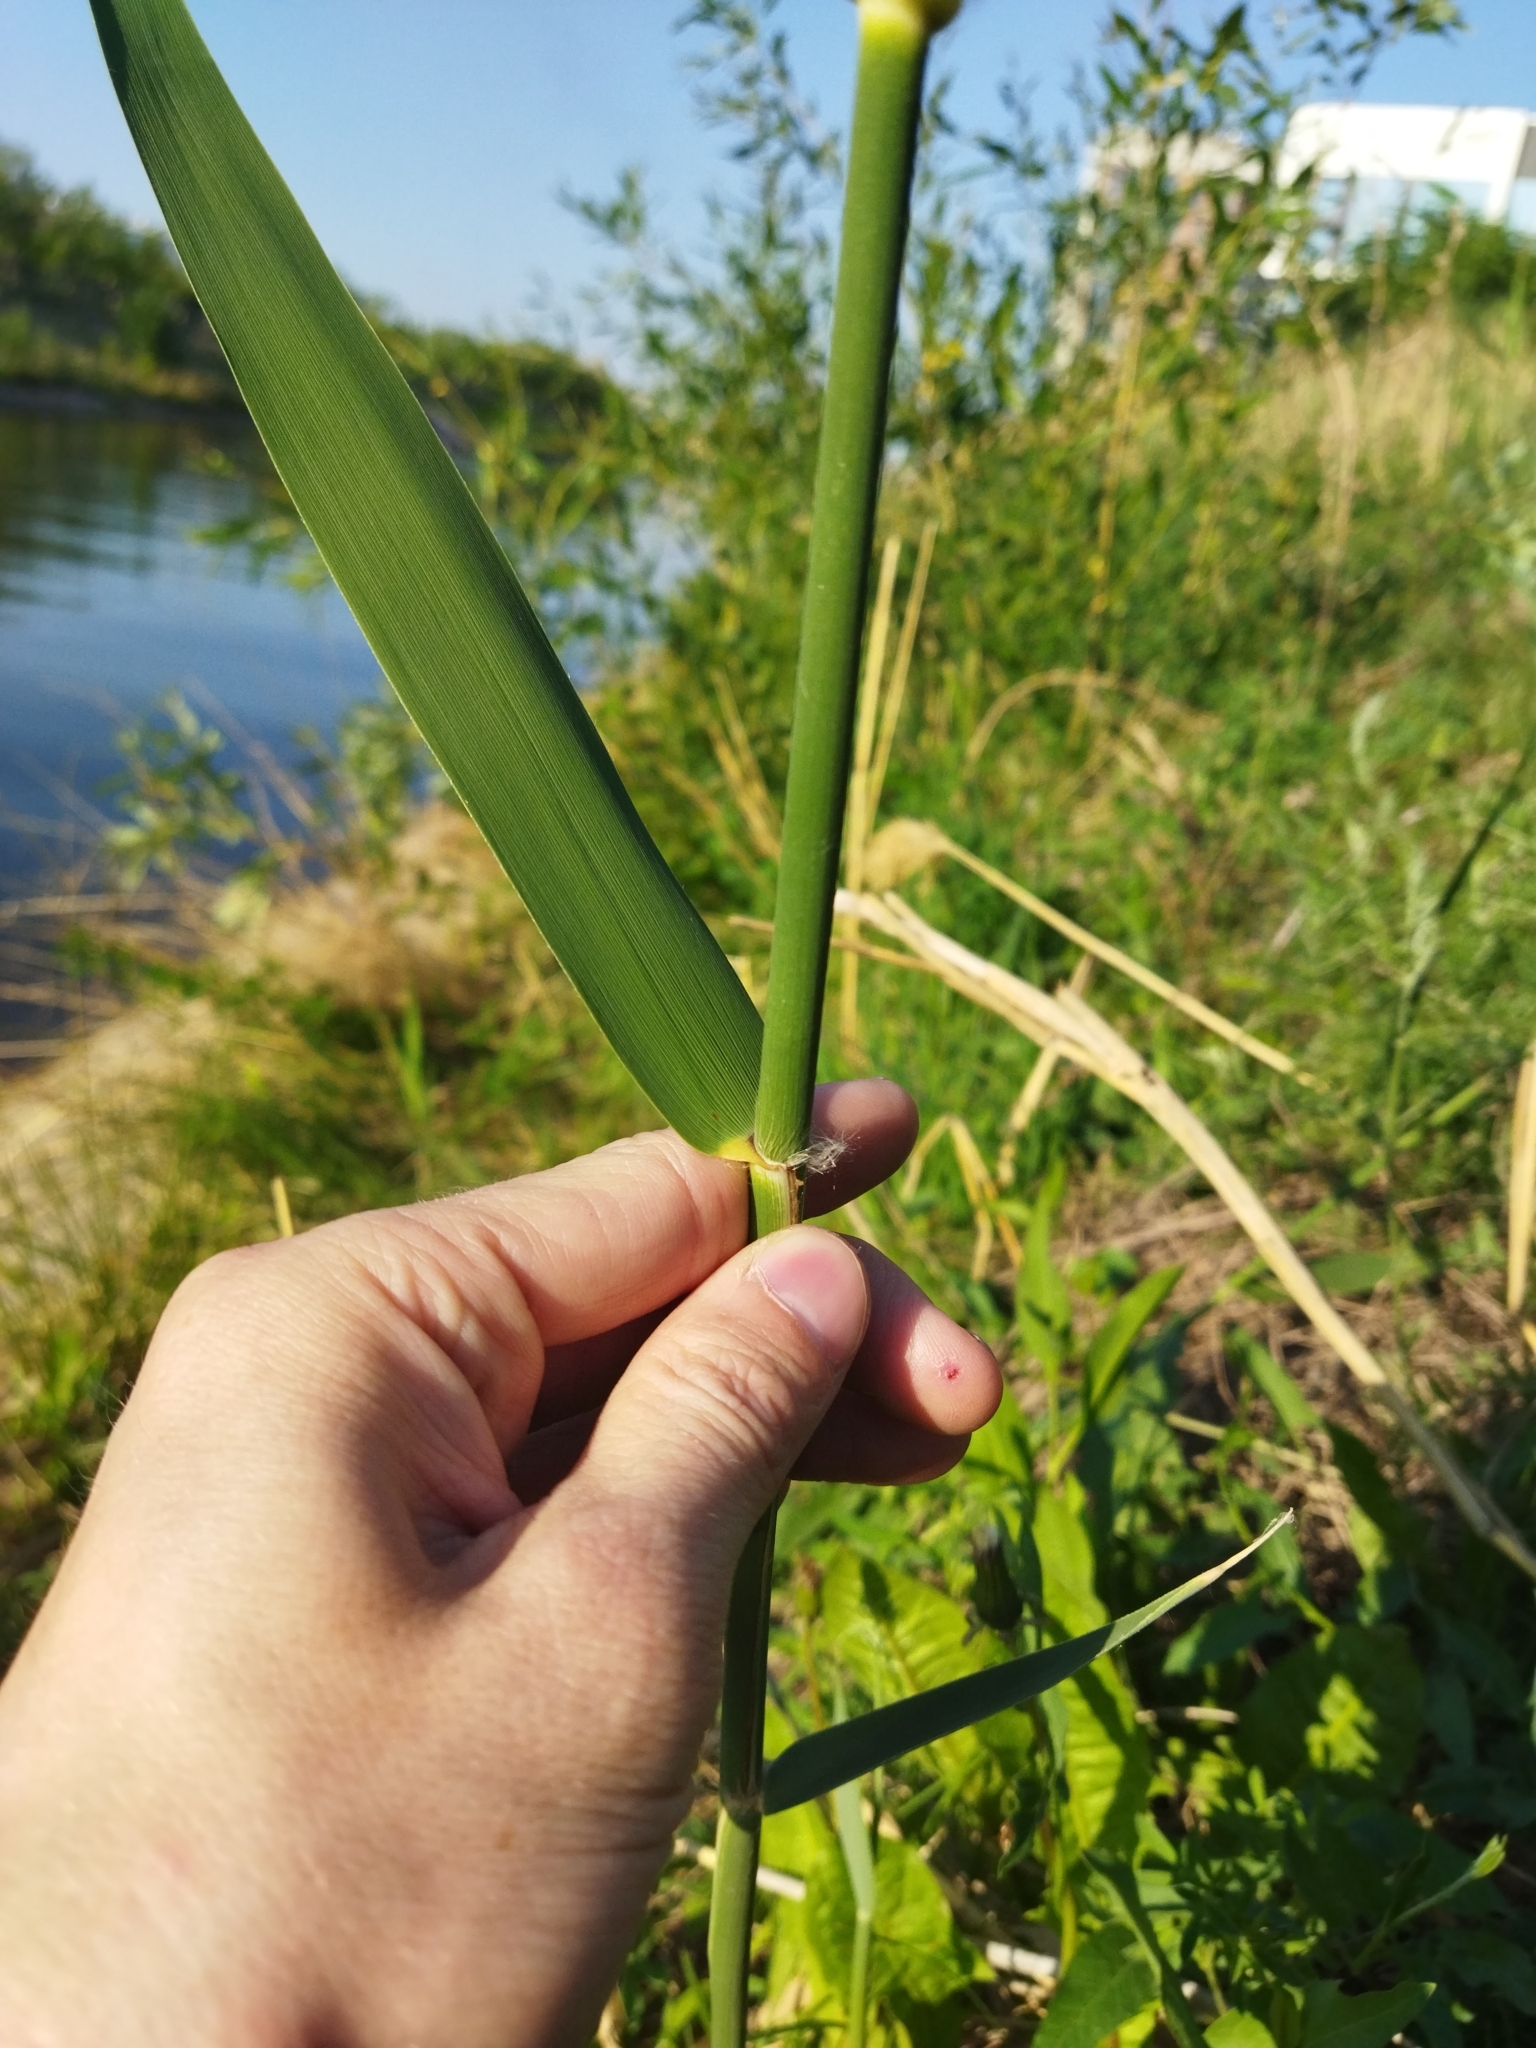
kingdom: Plantae
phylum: Tracheophyta
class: Liliopsida
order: Poales
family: Poaceae
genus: Phragmites
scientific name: Phragmites australis
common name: Common reed
